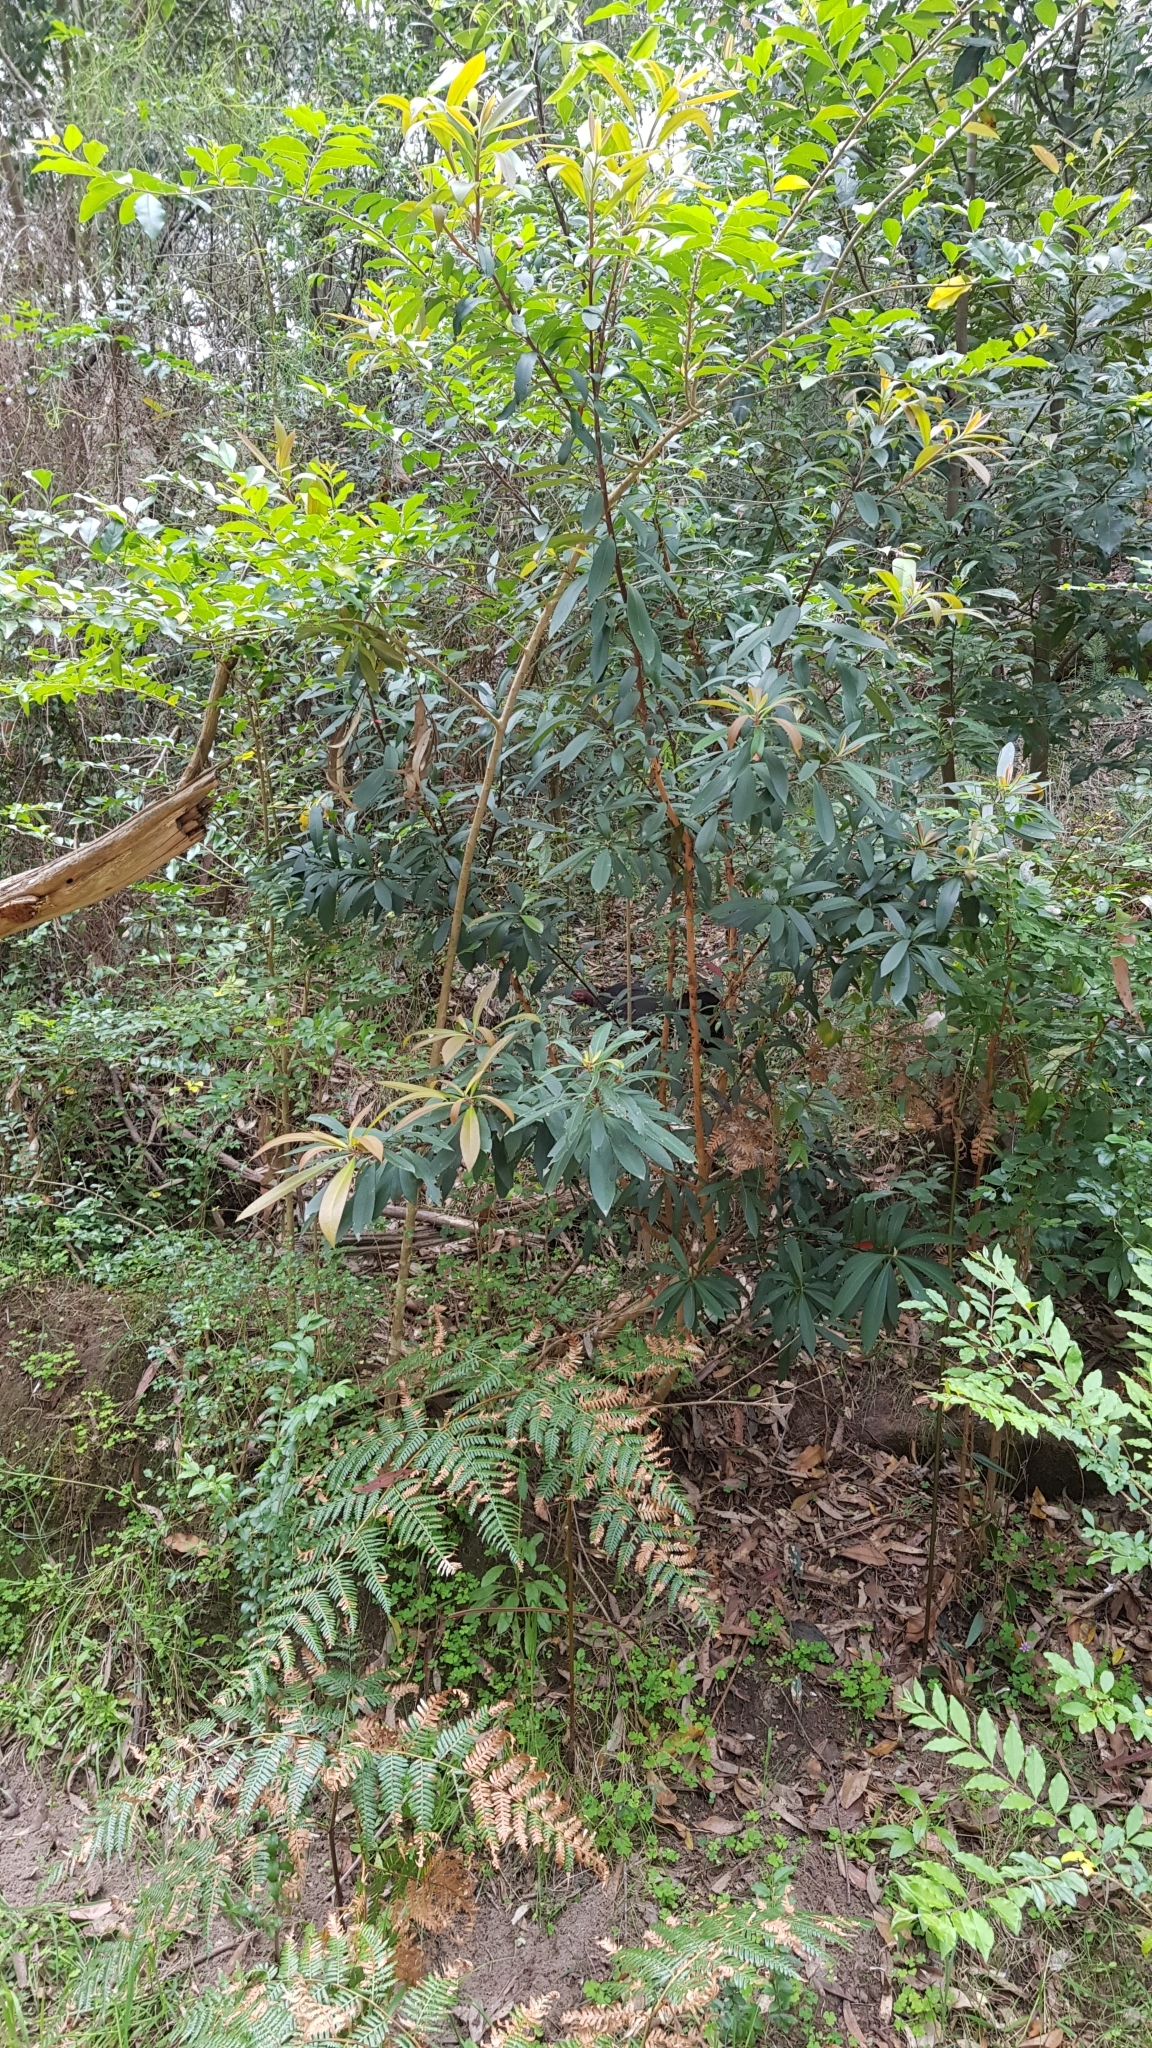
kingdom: Animalia
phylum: Chordata
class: Aves
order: Galliformes
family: Megapodiidae
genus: Alectura
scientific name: Alectura lathami
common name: Australian brushturkey
